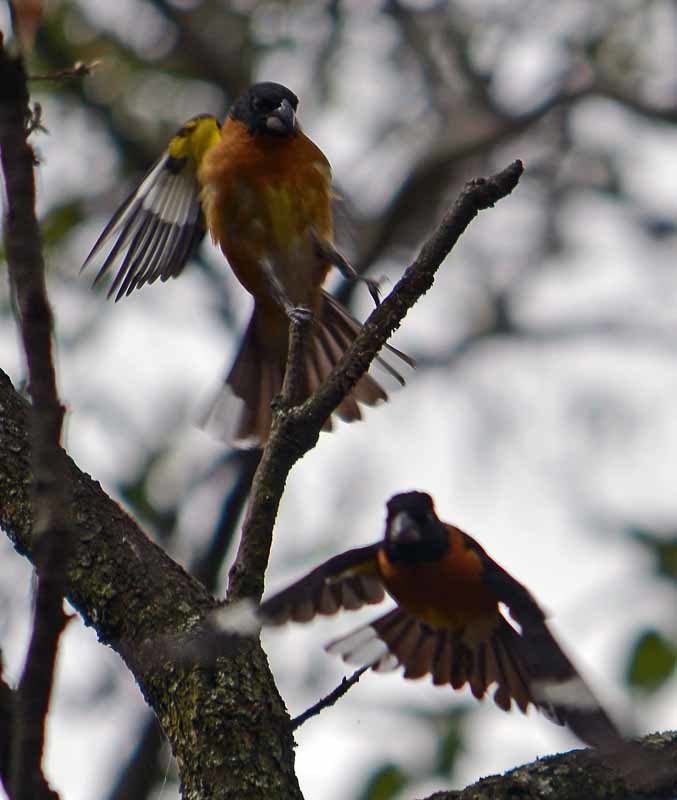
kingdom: Animalia
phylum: Chordata
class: Aves
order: Passeriformes
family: Cardinalidae
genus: Pheucticus
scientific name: Pheucticus melanocephalus
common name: Black-headed grosbeak
